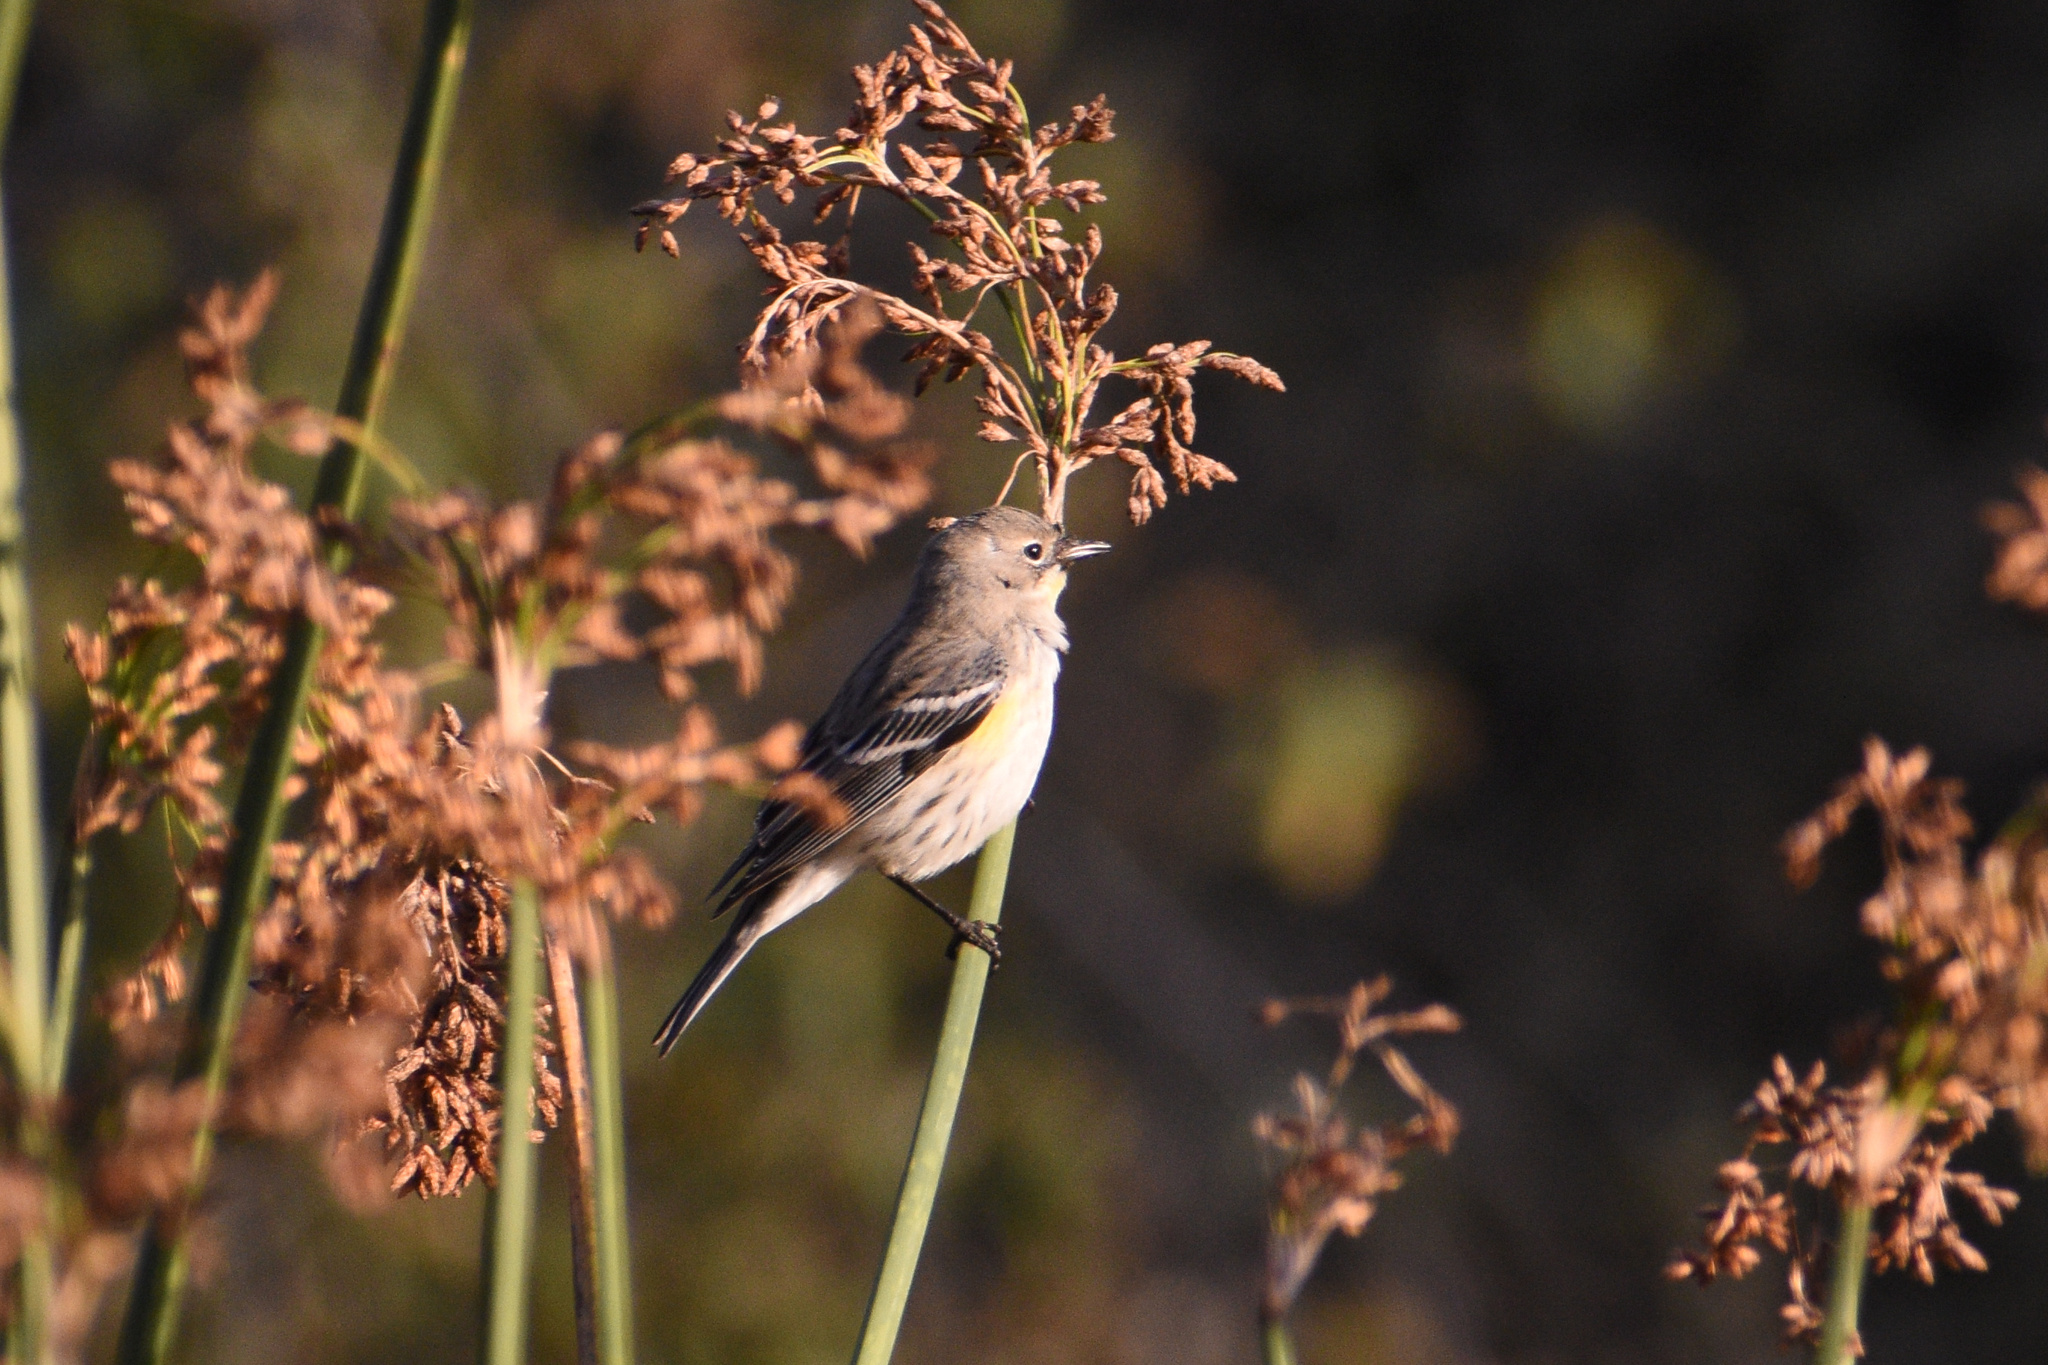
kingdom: Animalia
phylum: Chordata
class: Aves
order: Passeriformes
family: Parulidae
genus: Setophaga
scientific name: Setophaga coronata
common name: Myrtle warbler
